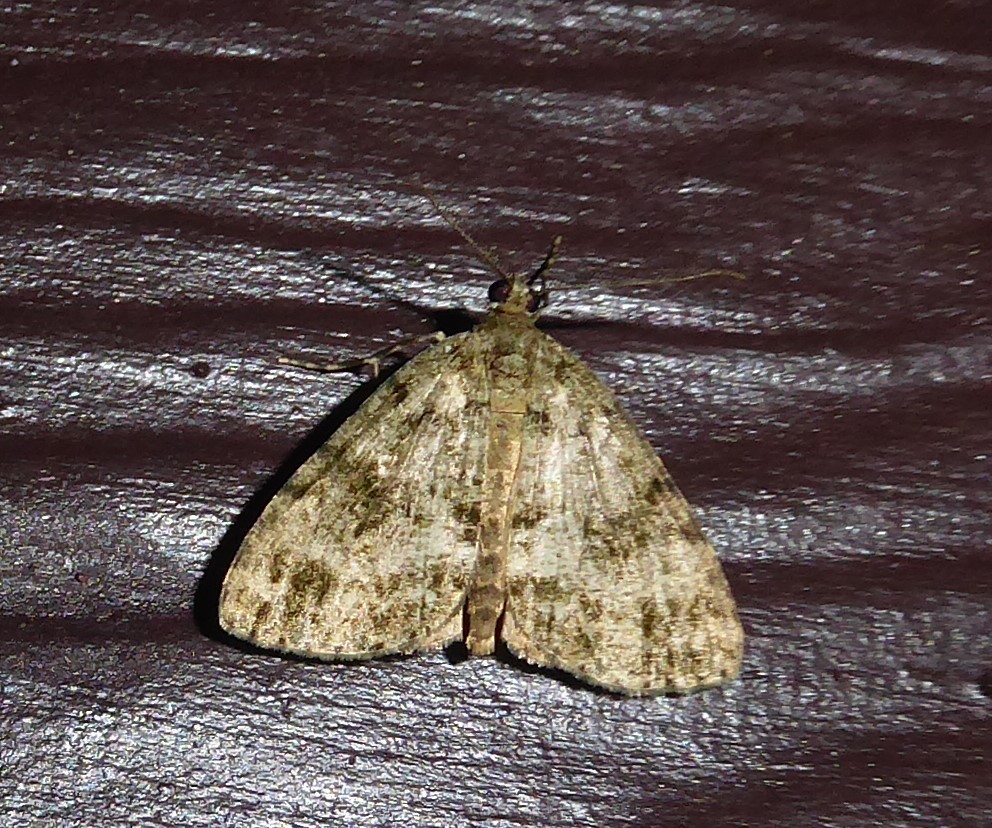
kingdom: Animalia
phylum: Arthropoda
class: Insecta
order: Lepidoptera
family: Geometridae
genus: Pseudocoremia
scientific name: Pseudocoremia indistincta
